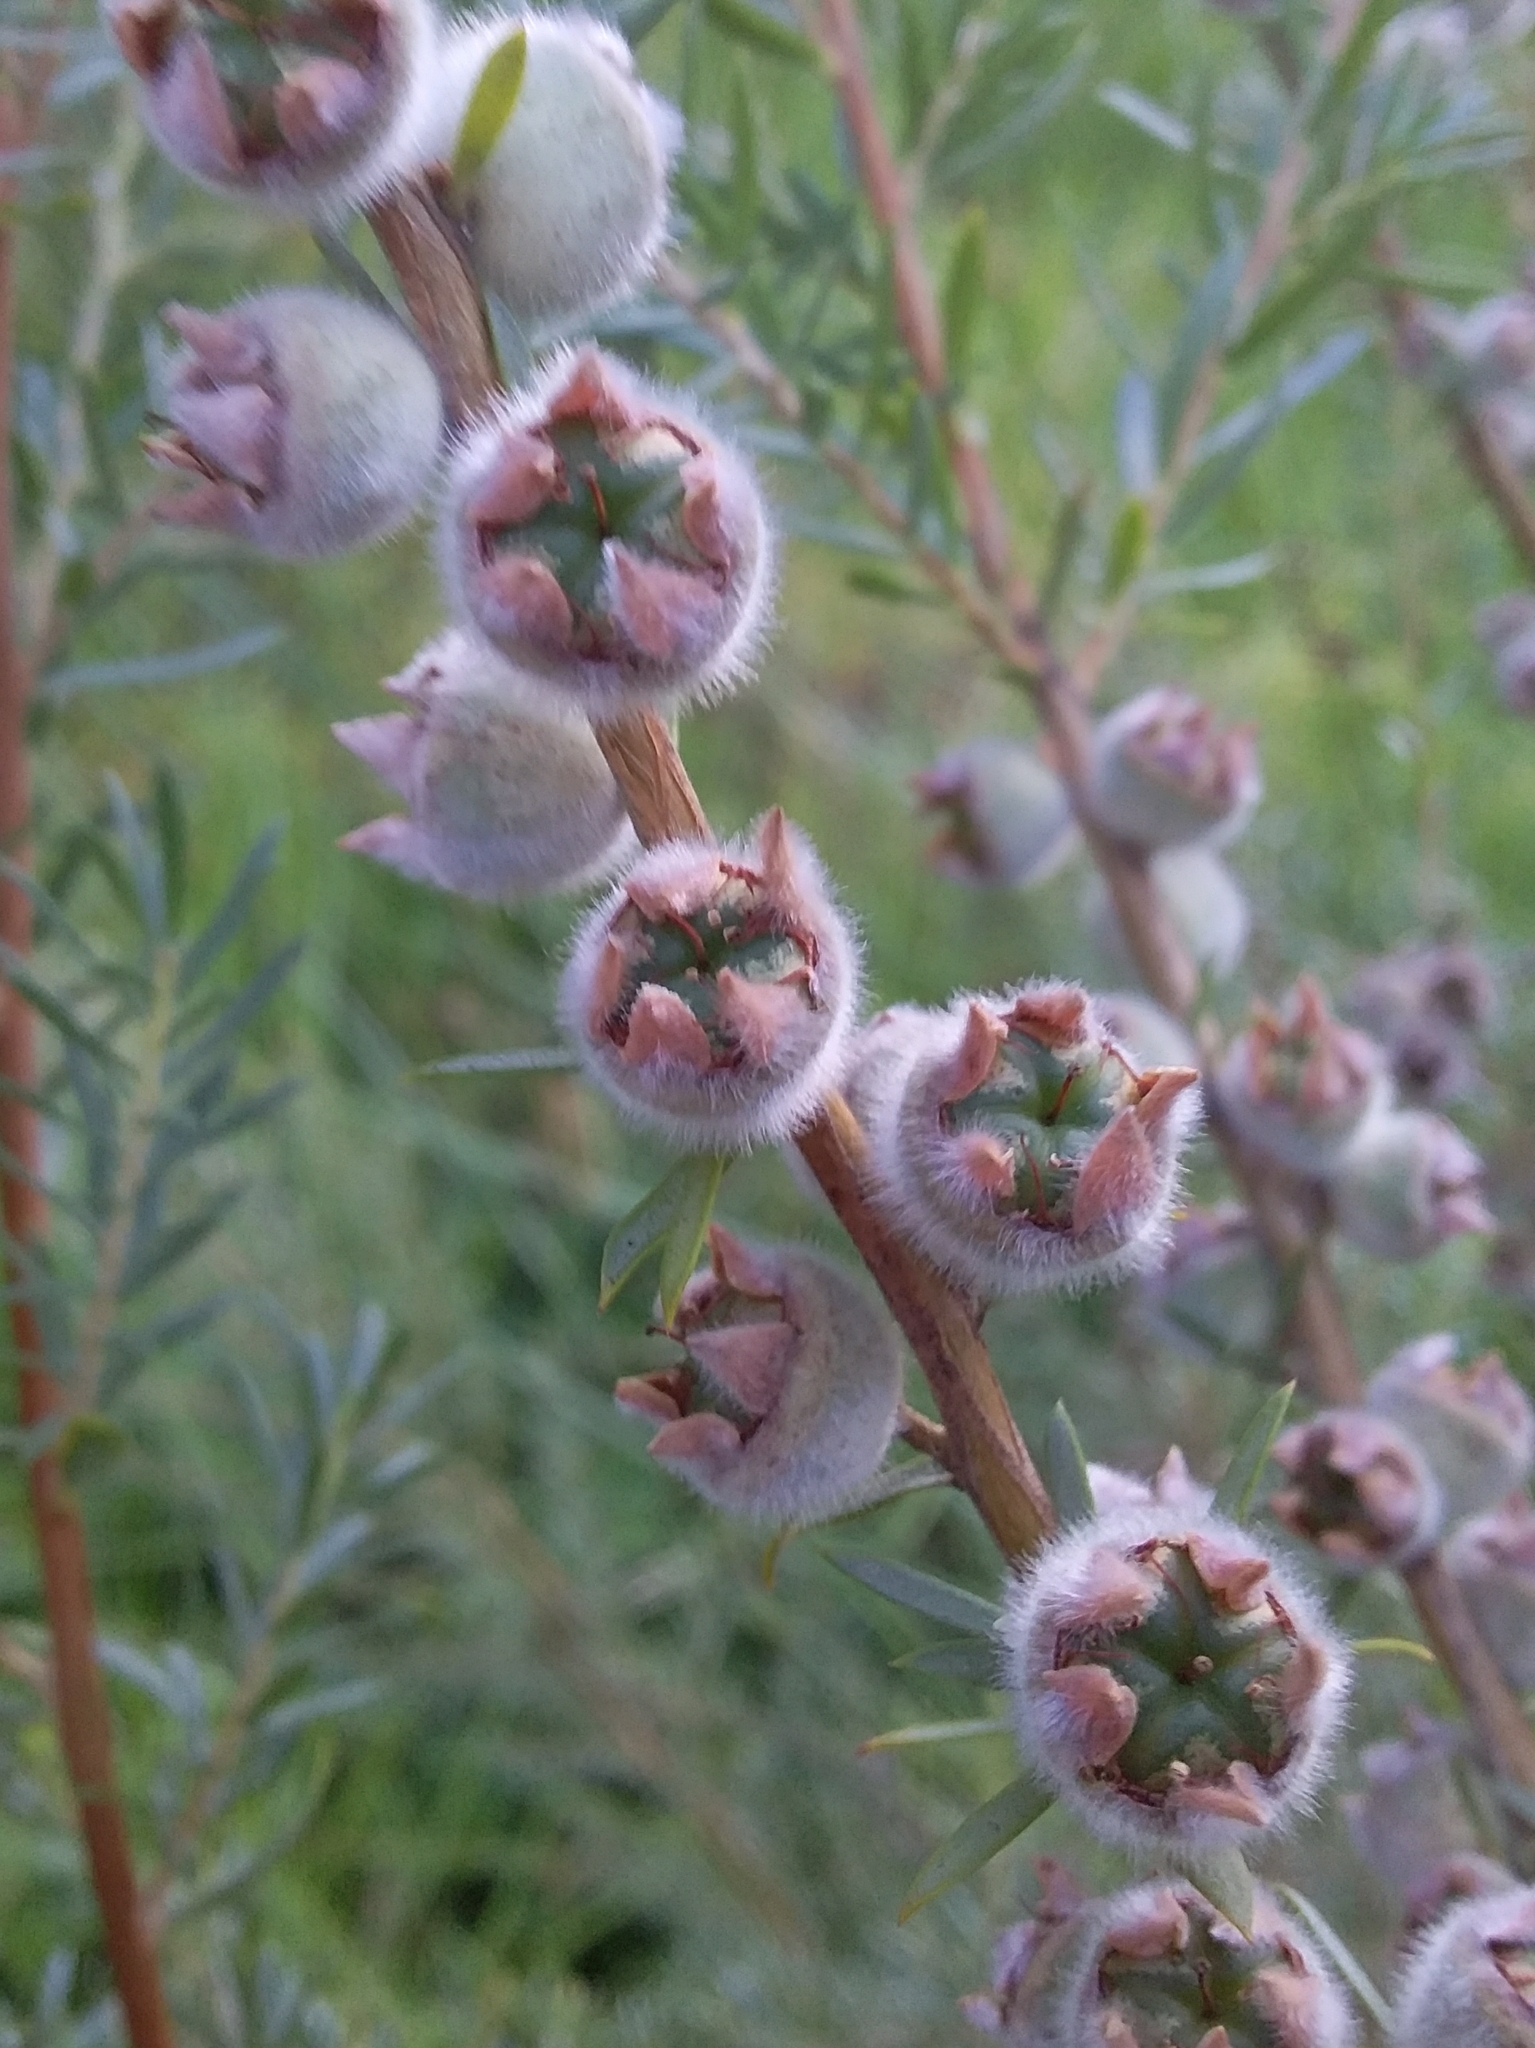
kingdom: Plantae
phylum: Tracheophyta
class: Magnoliopsida
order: Myrtales
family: Myrtaceae
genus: Leptospermum
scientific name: Leptospermum lanigerum
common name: Woolly tea-tree
